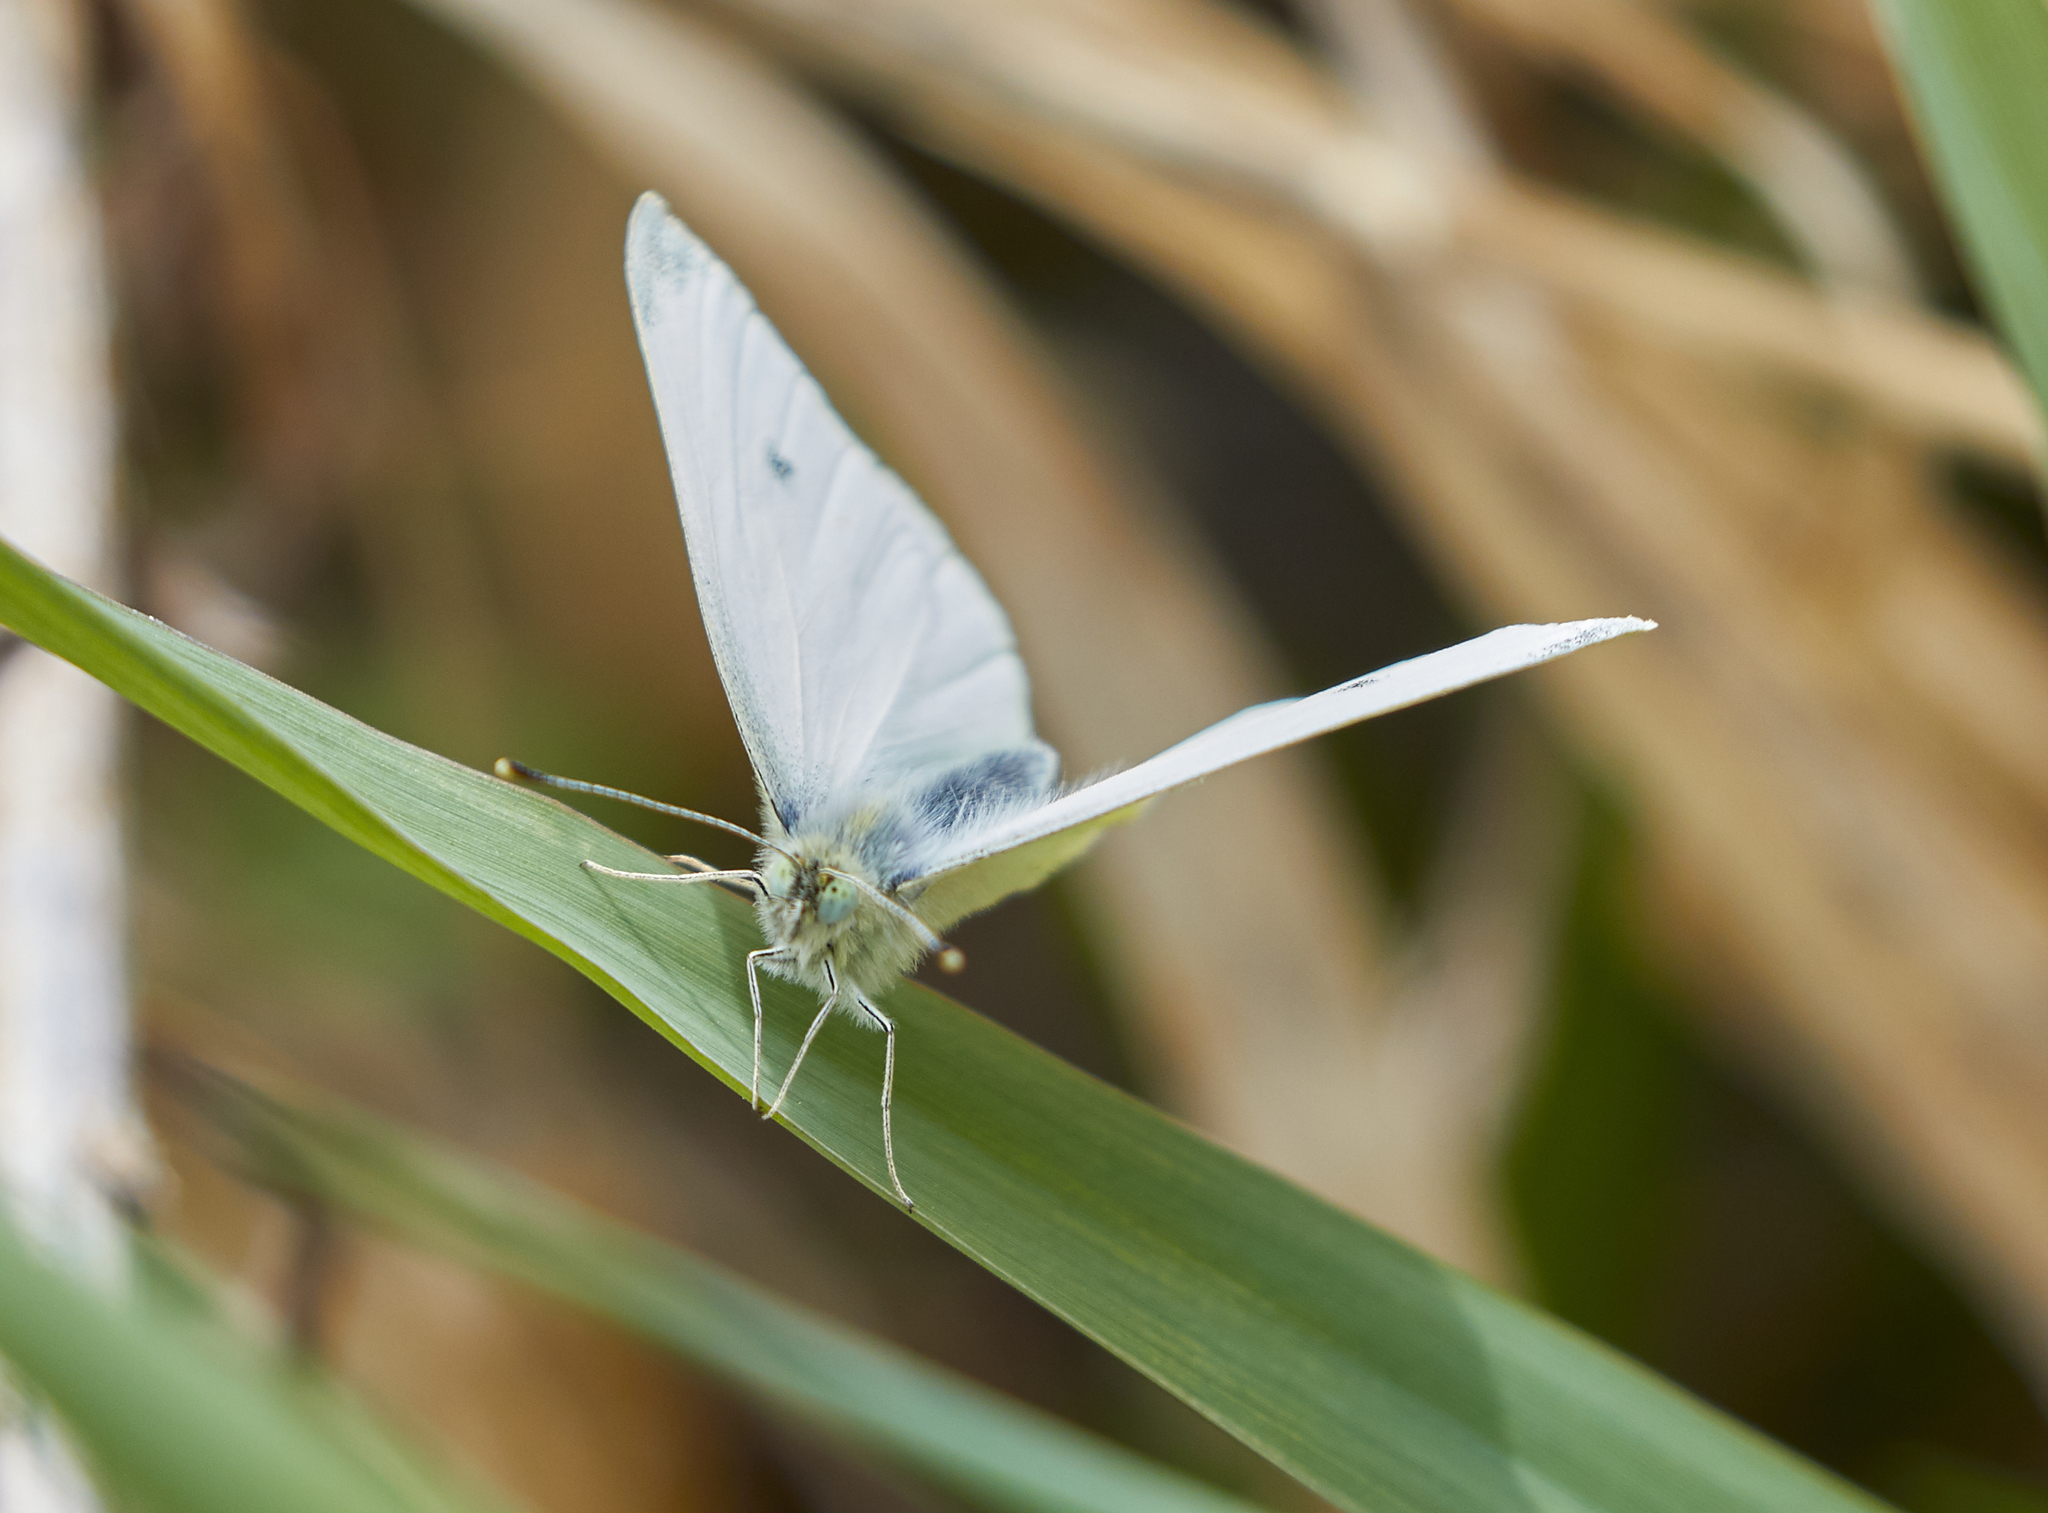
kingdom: Animalia
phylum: Arthropoda
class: Insecta
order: Lepidoptera
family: Pieridae
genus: Pieris
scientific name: Pieris rapae
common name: Small white
